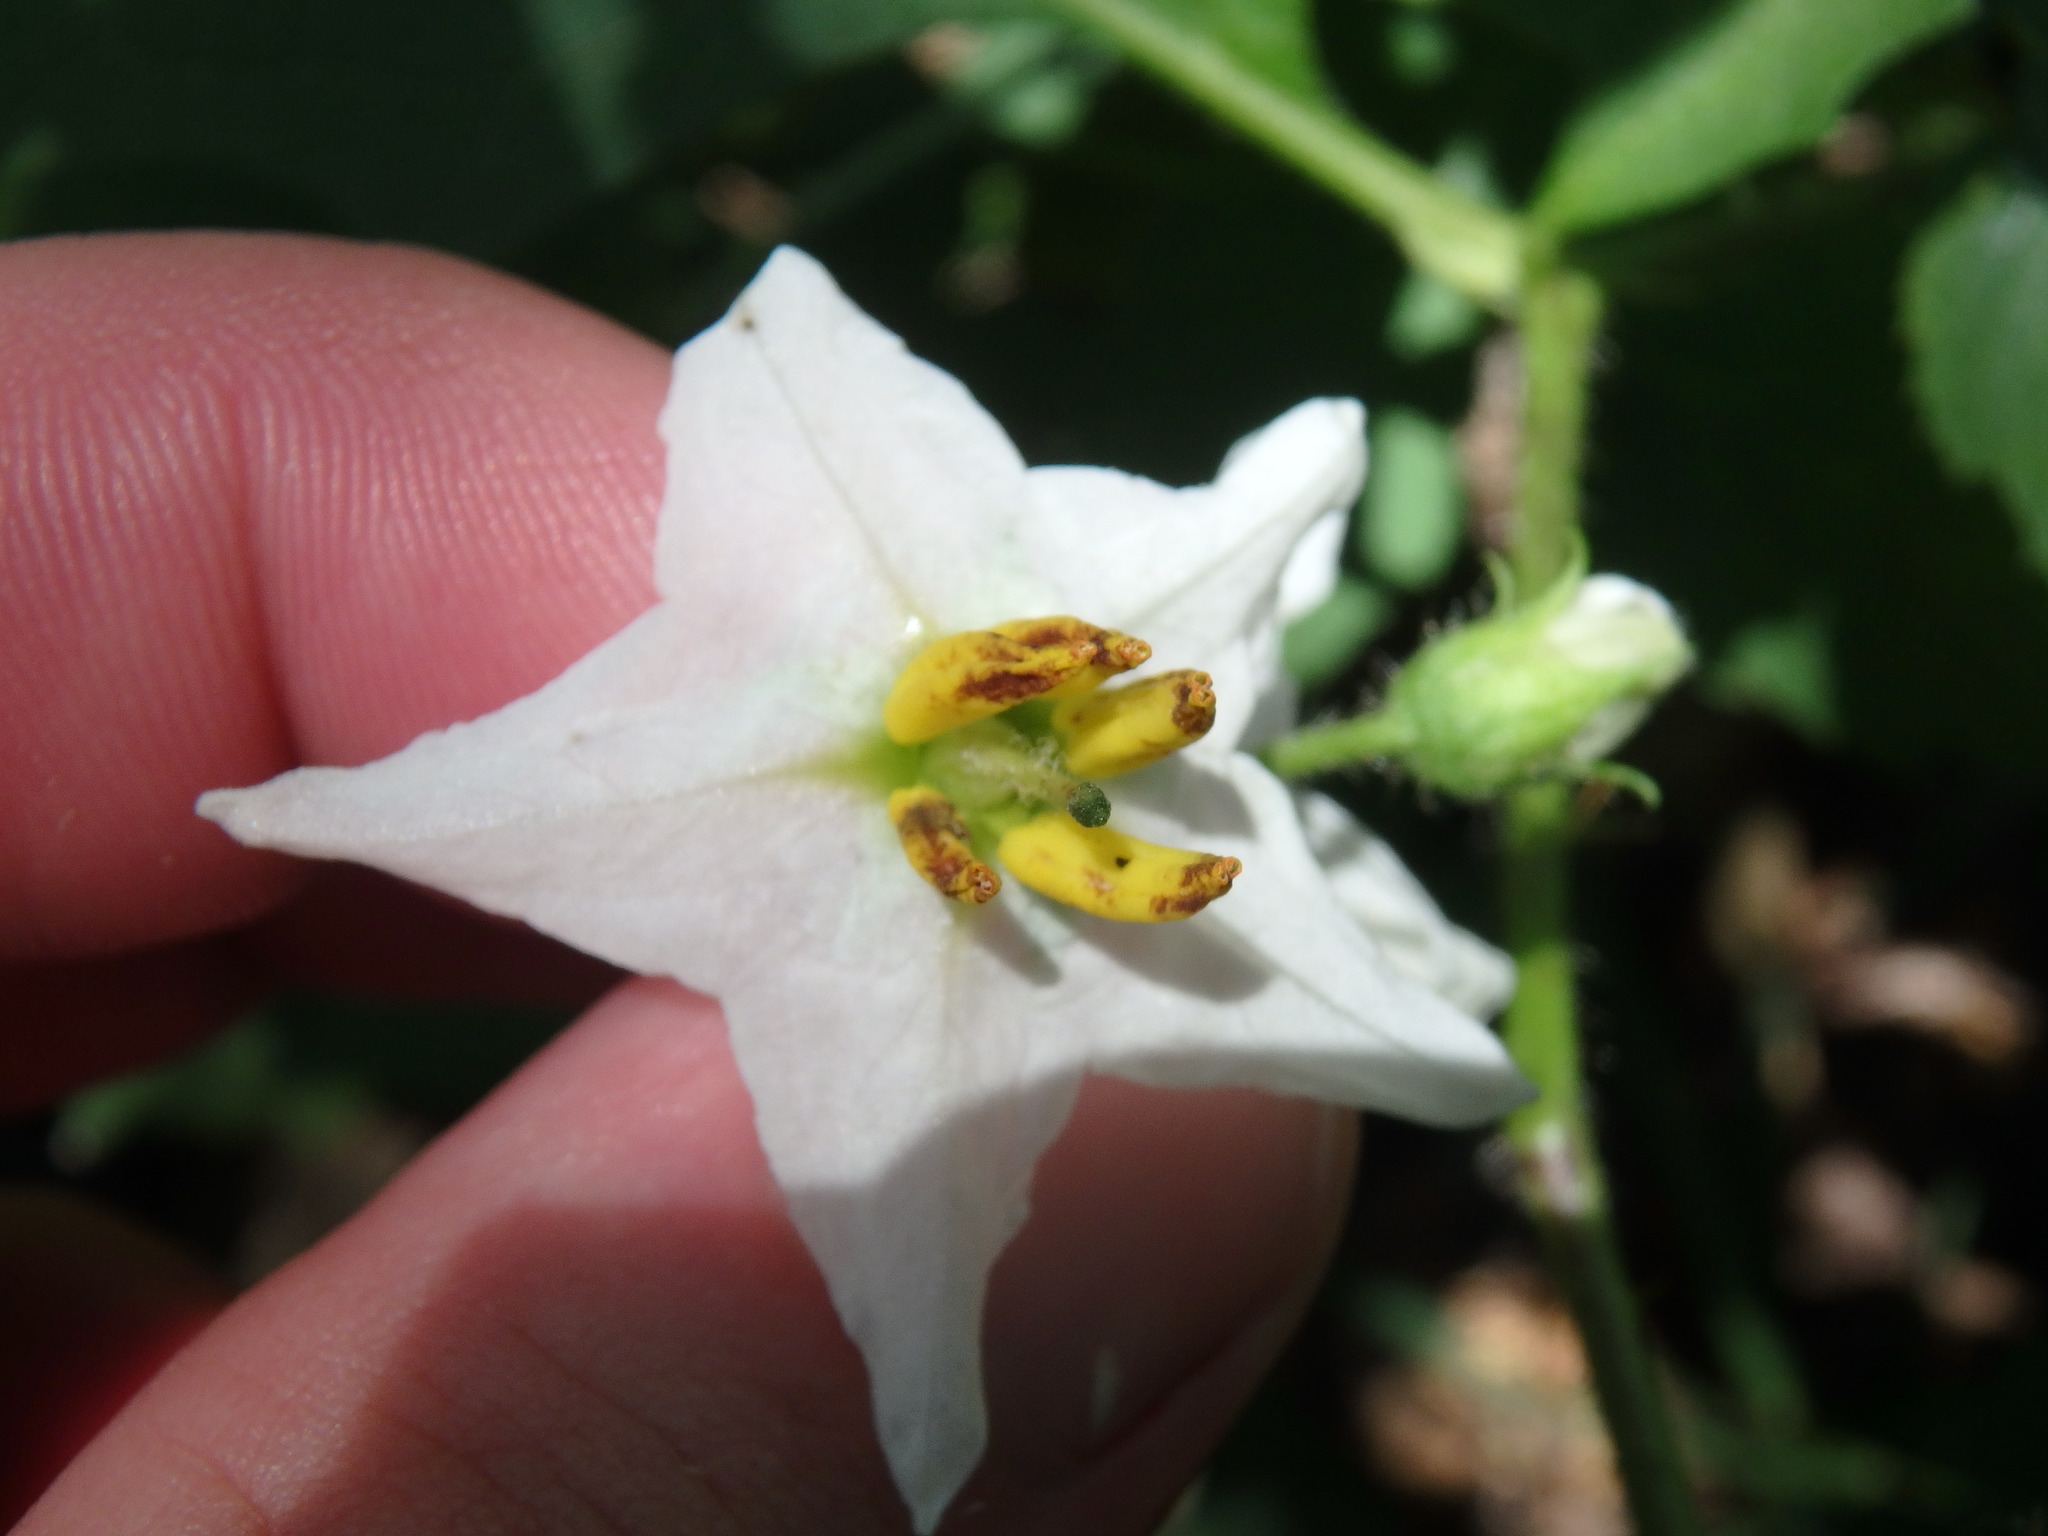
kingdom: Plantae
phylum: Tracheophyta
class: Magnoliopsida
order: Solanales
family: Solanaceae
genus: Solanum
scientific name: Solanum carolinense
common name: Horse-nettle
